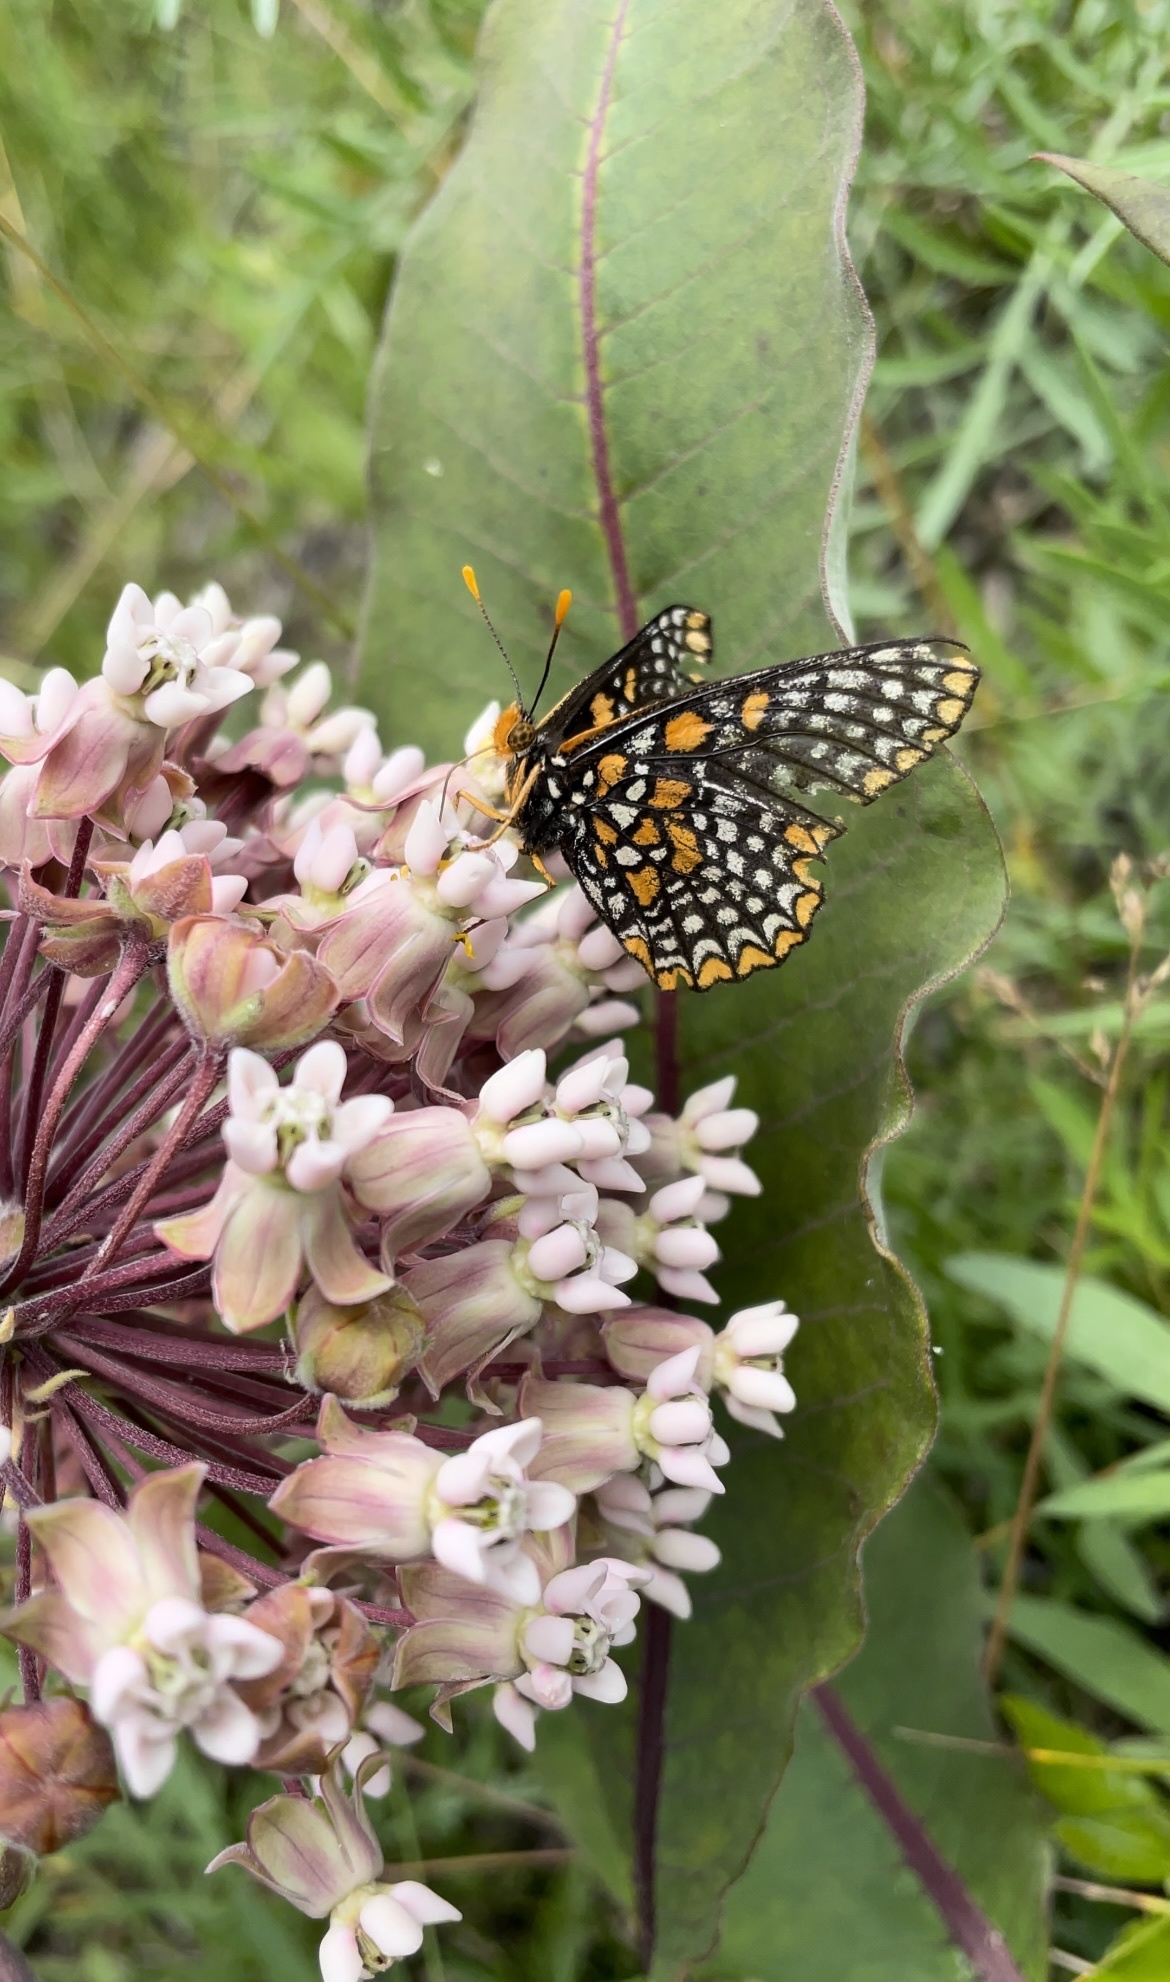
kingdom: Animalia
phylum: Arthropoda
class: Insecta
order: Lepidoptera
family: Nymphalidae
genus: Euphydryas
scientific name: Euphydryas phaeton
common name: Baltimore checkerspot
